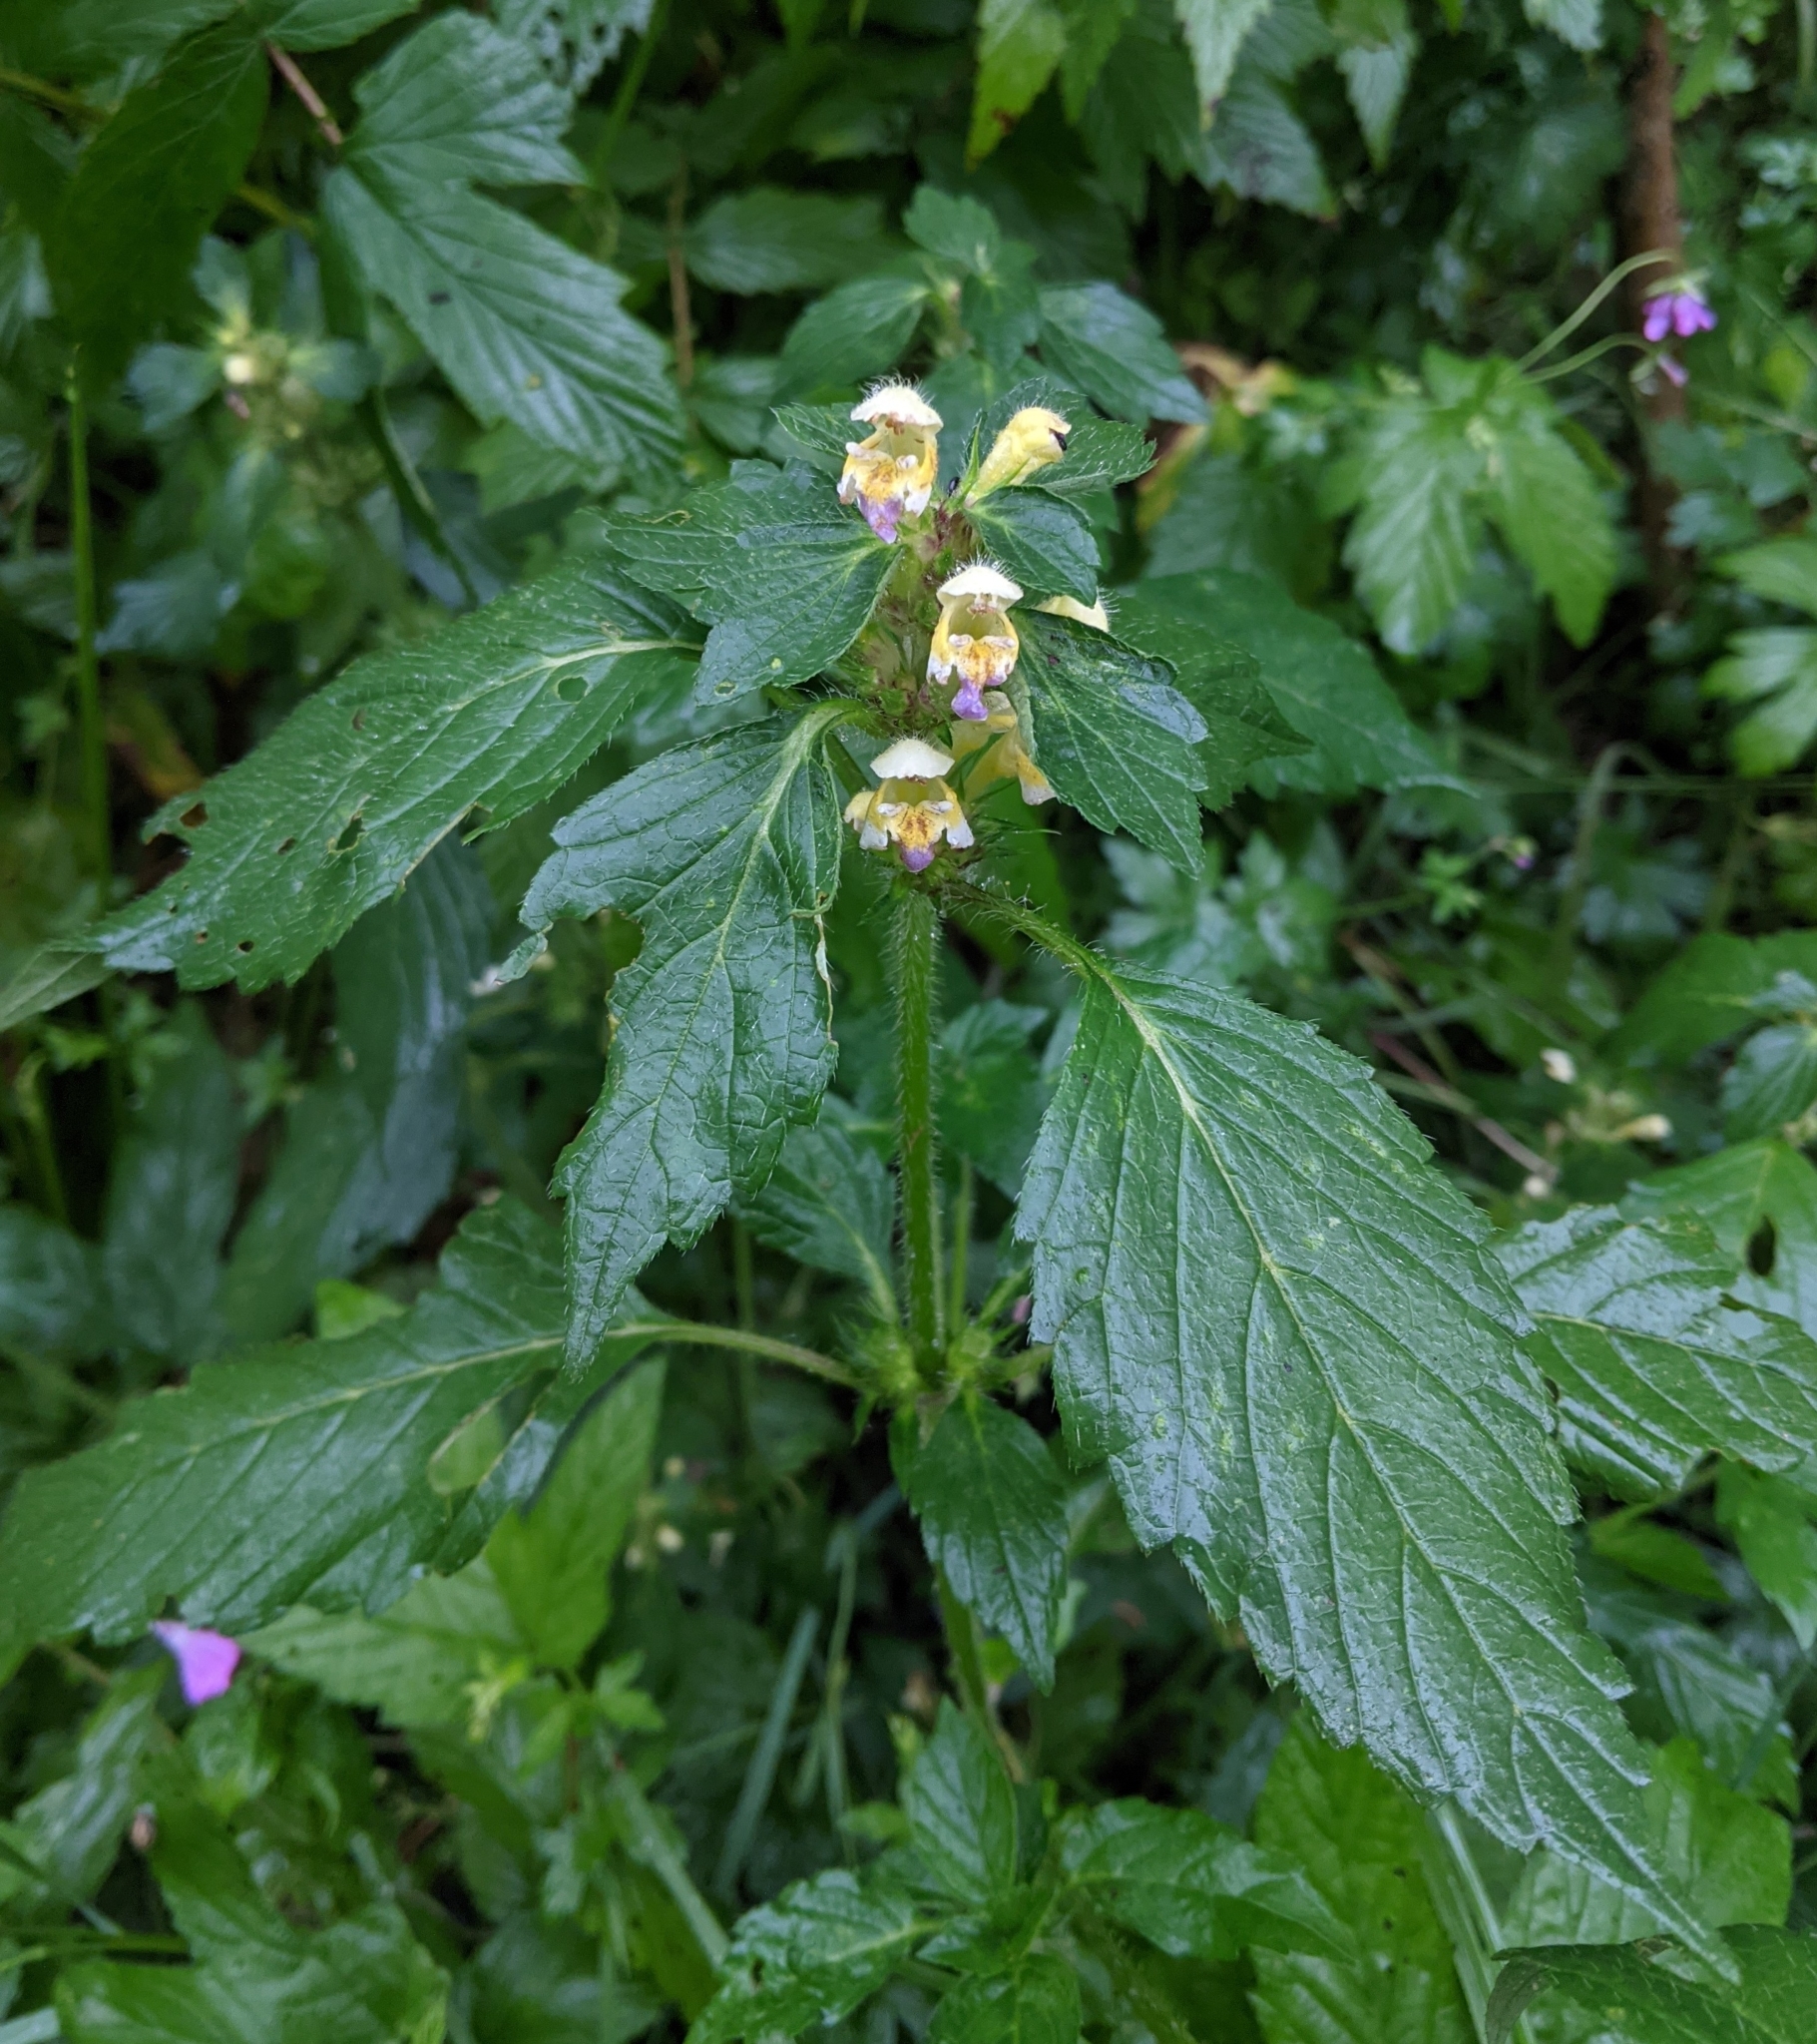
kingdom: Plantae
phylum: Tracheophyta
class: Magnoliopsida
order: Lamiales
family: Lamiaceae
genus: Galeopsis
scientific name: Galeopsis speciosa
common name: Large-flowered hemp-nettle
